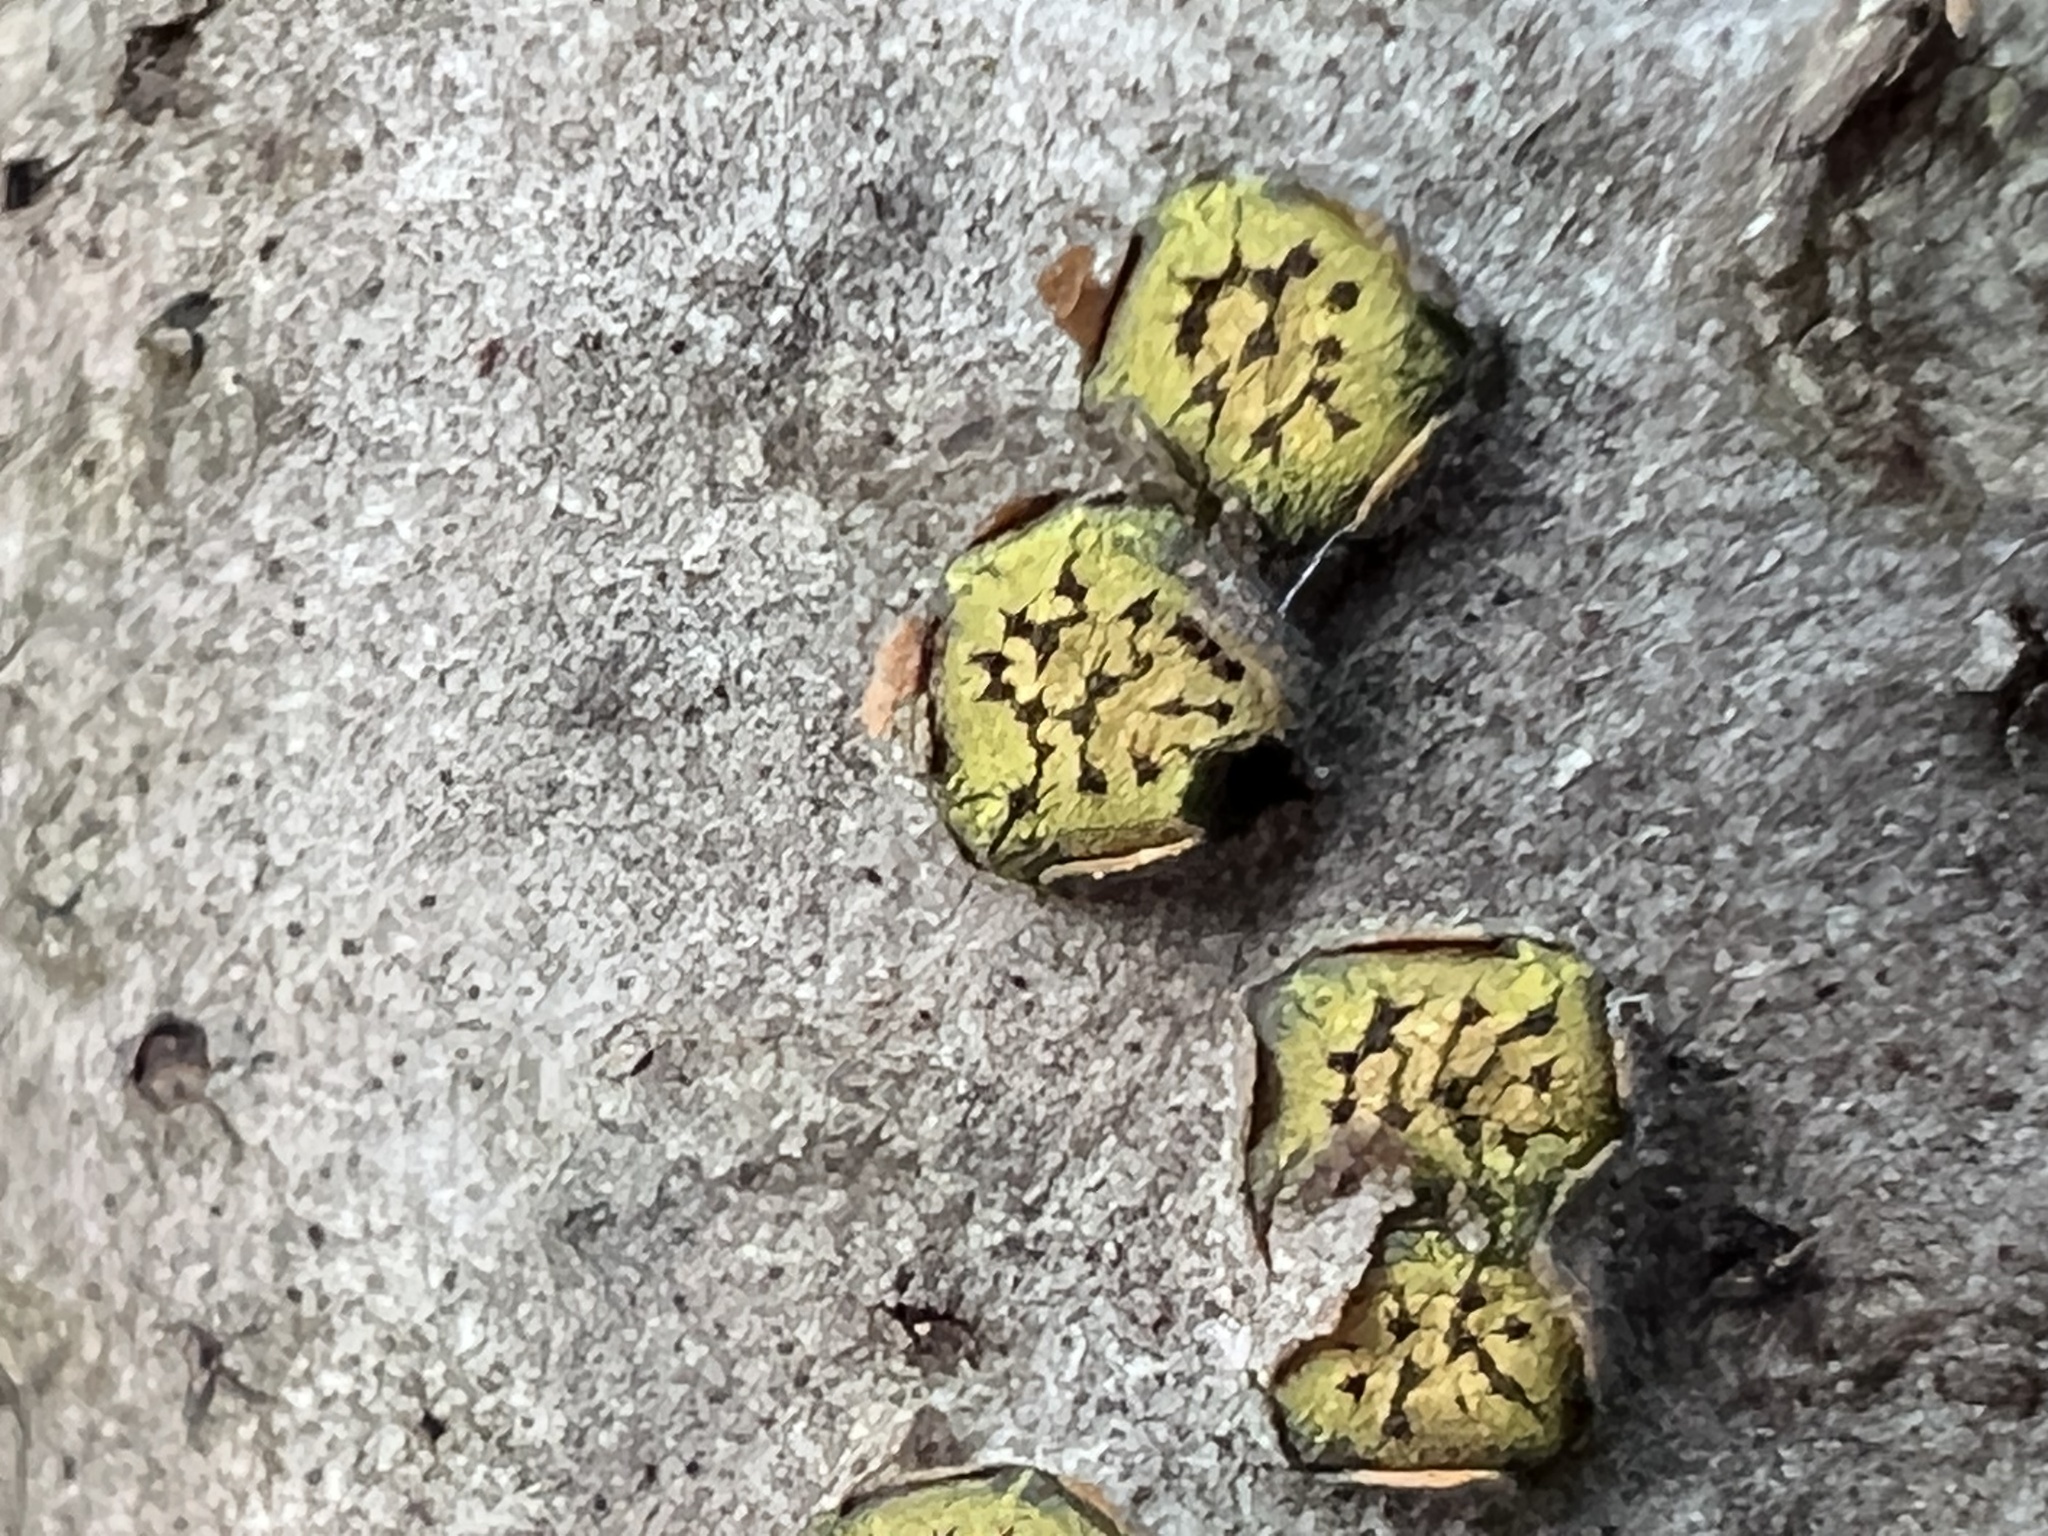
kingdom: Fungi
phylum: Ascomycota
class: Sordariomycetes
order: Xylariales
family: Diatrypaceae
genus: Diatrype
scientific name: Diatrype virescens
